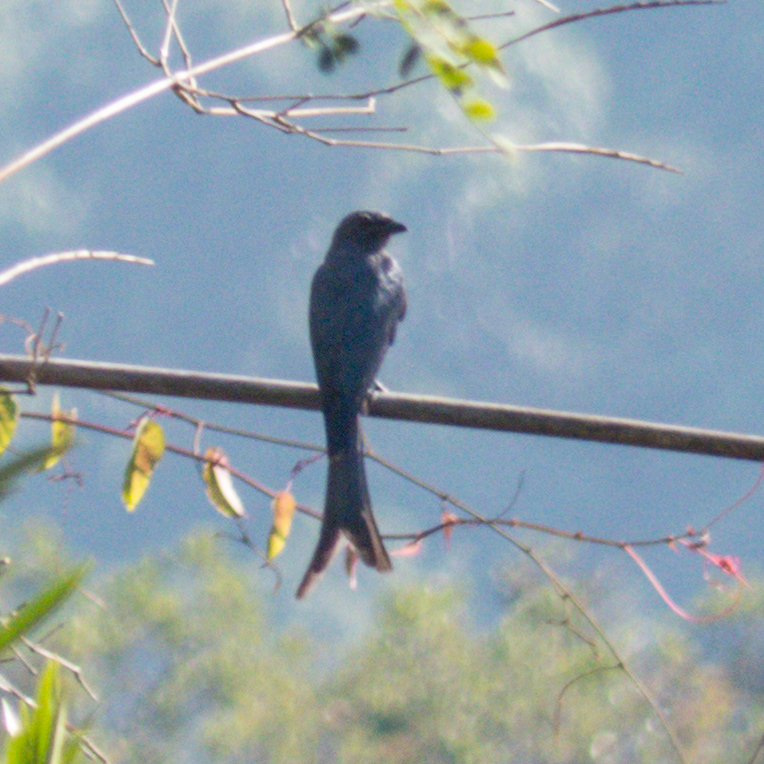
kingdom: Animalia
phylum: Chordata
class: Aves
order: Passeriformes
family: Dicruridae
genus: Dicrurus
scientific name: Dicrurus leucophaeus
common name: Ashy drongo
